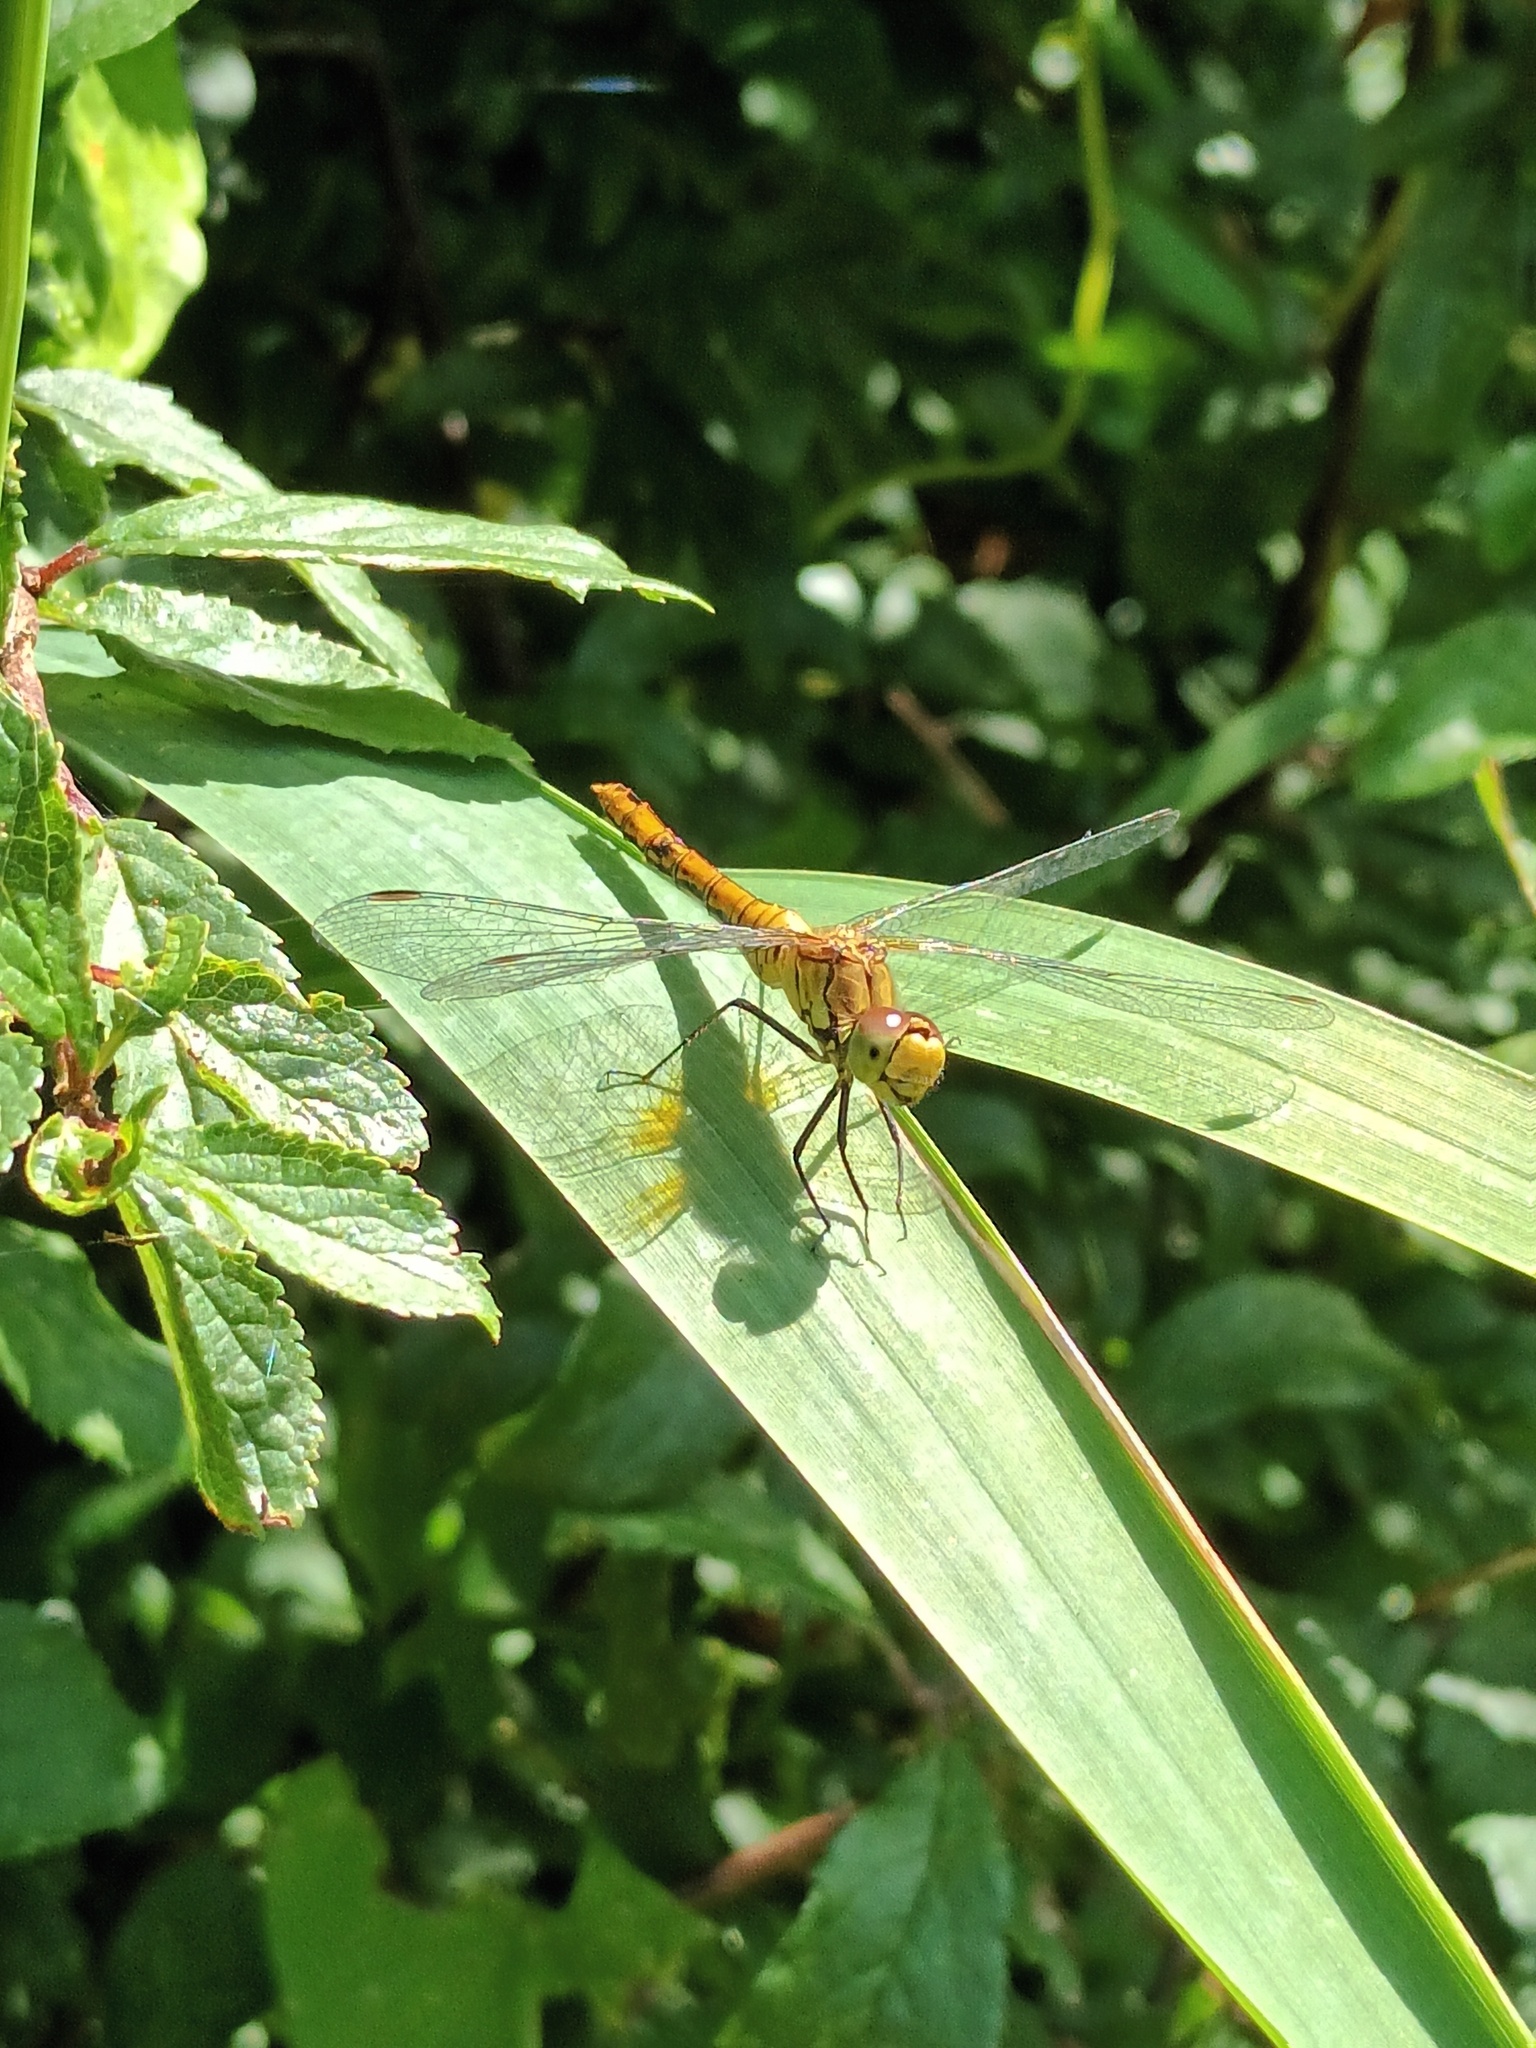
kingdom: Animalia
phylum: Arthropoda
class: Insecta
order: Odonata
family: Libellulidae
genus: Sympetrum
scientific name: Sympetrum striolatum
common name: Common darter
